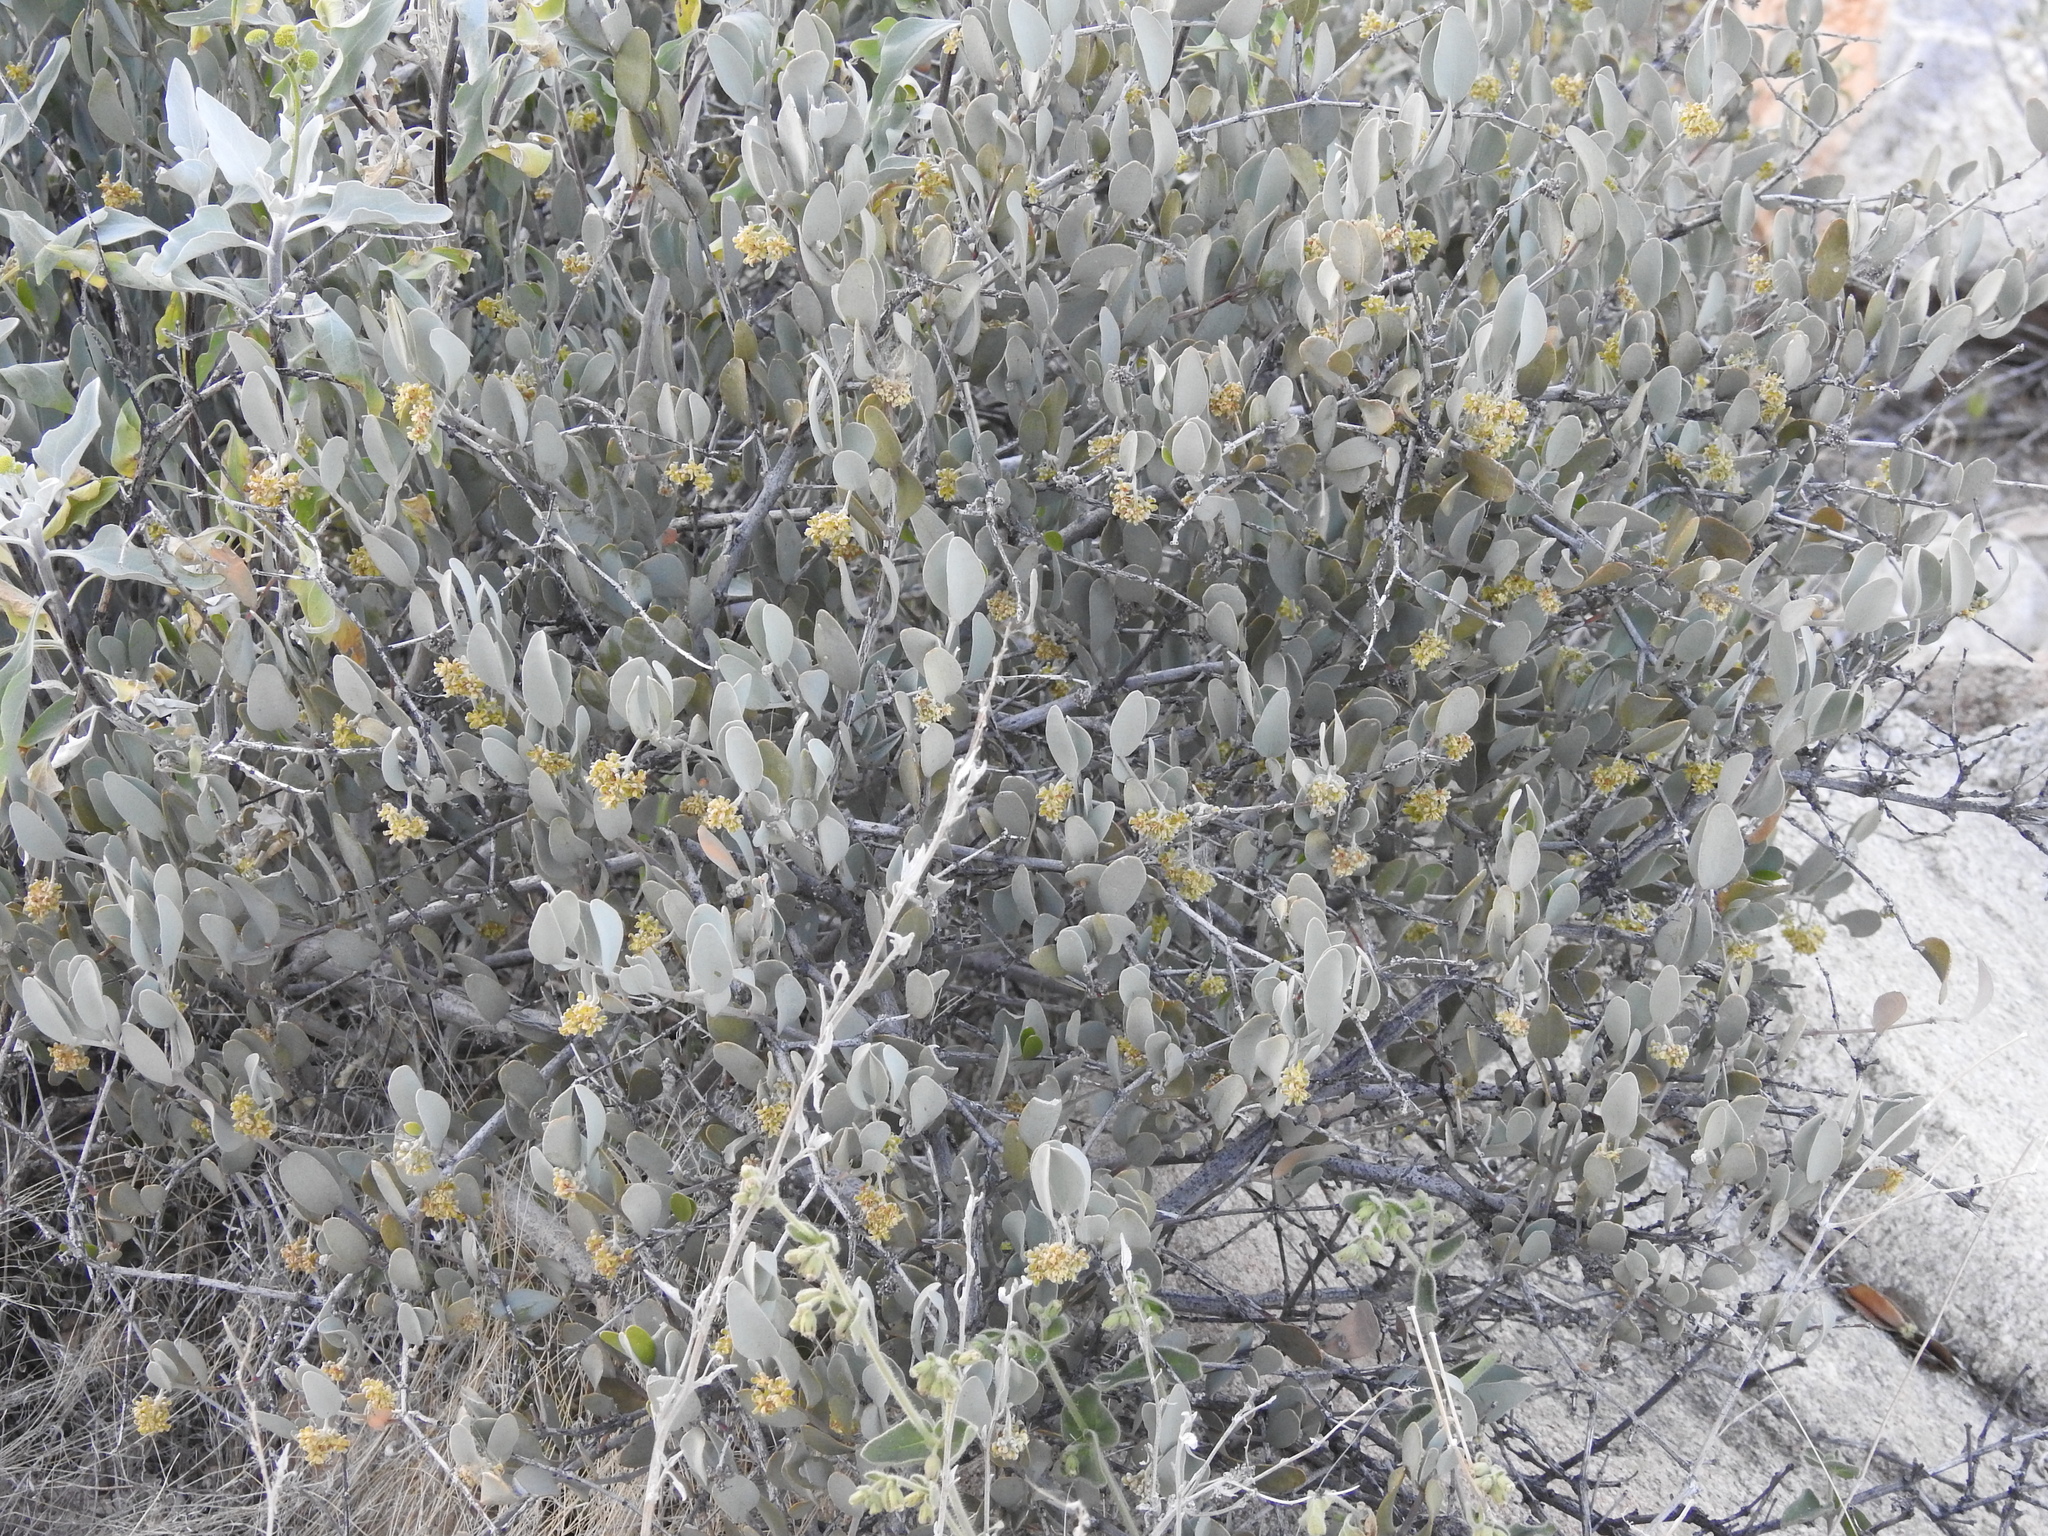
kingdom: Plantae
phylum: Tracheophyta
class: Magnoliopsida
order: Caryophyllales
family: Simmondsiaceae
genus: Simmondsia
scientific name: Simmondsia chinensis
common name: Jojoba
